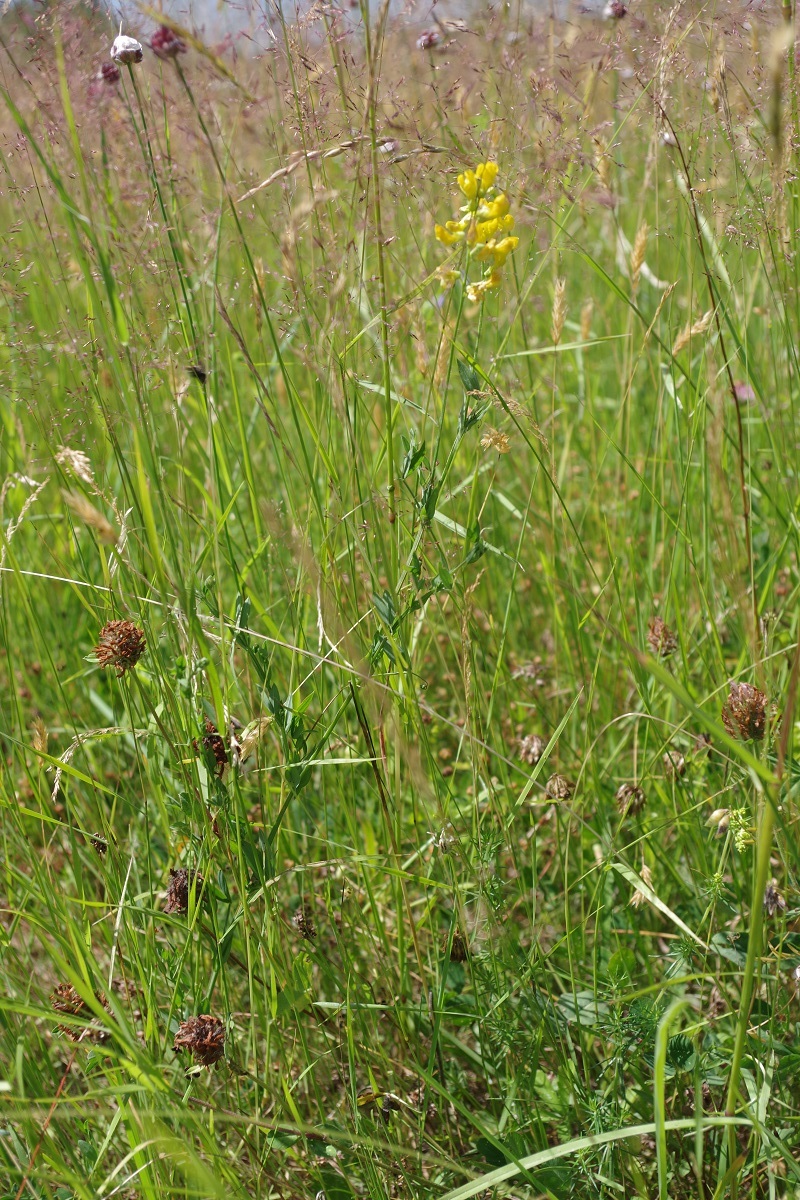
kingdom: Plantae
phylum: Tracheophyta
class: Magnoliopsida
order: Fabales
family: Fabaceae
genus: Lathyrus
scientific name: Lathyrus pratensis
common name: Meadow vetchling
